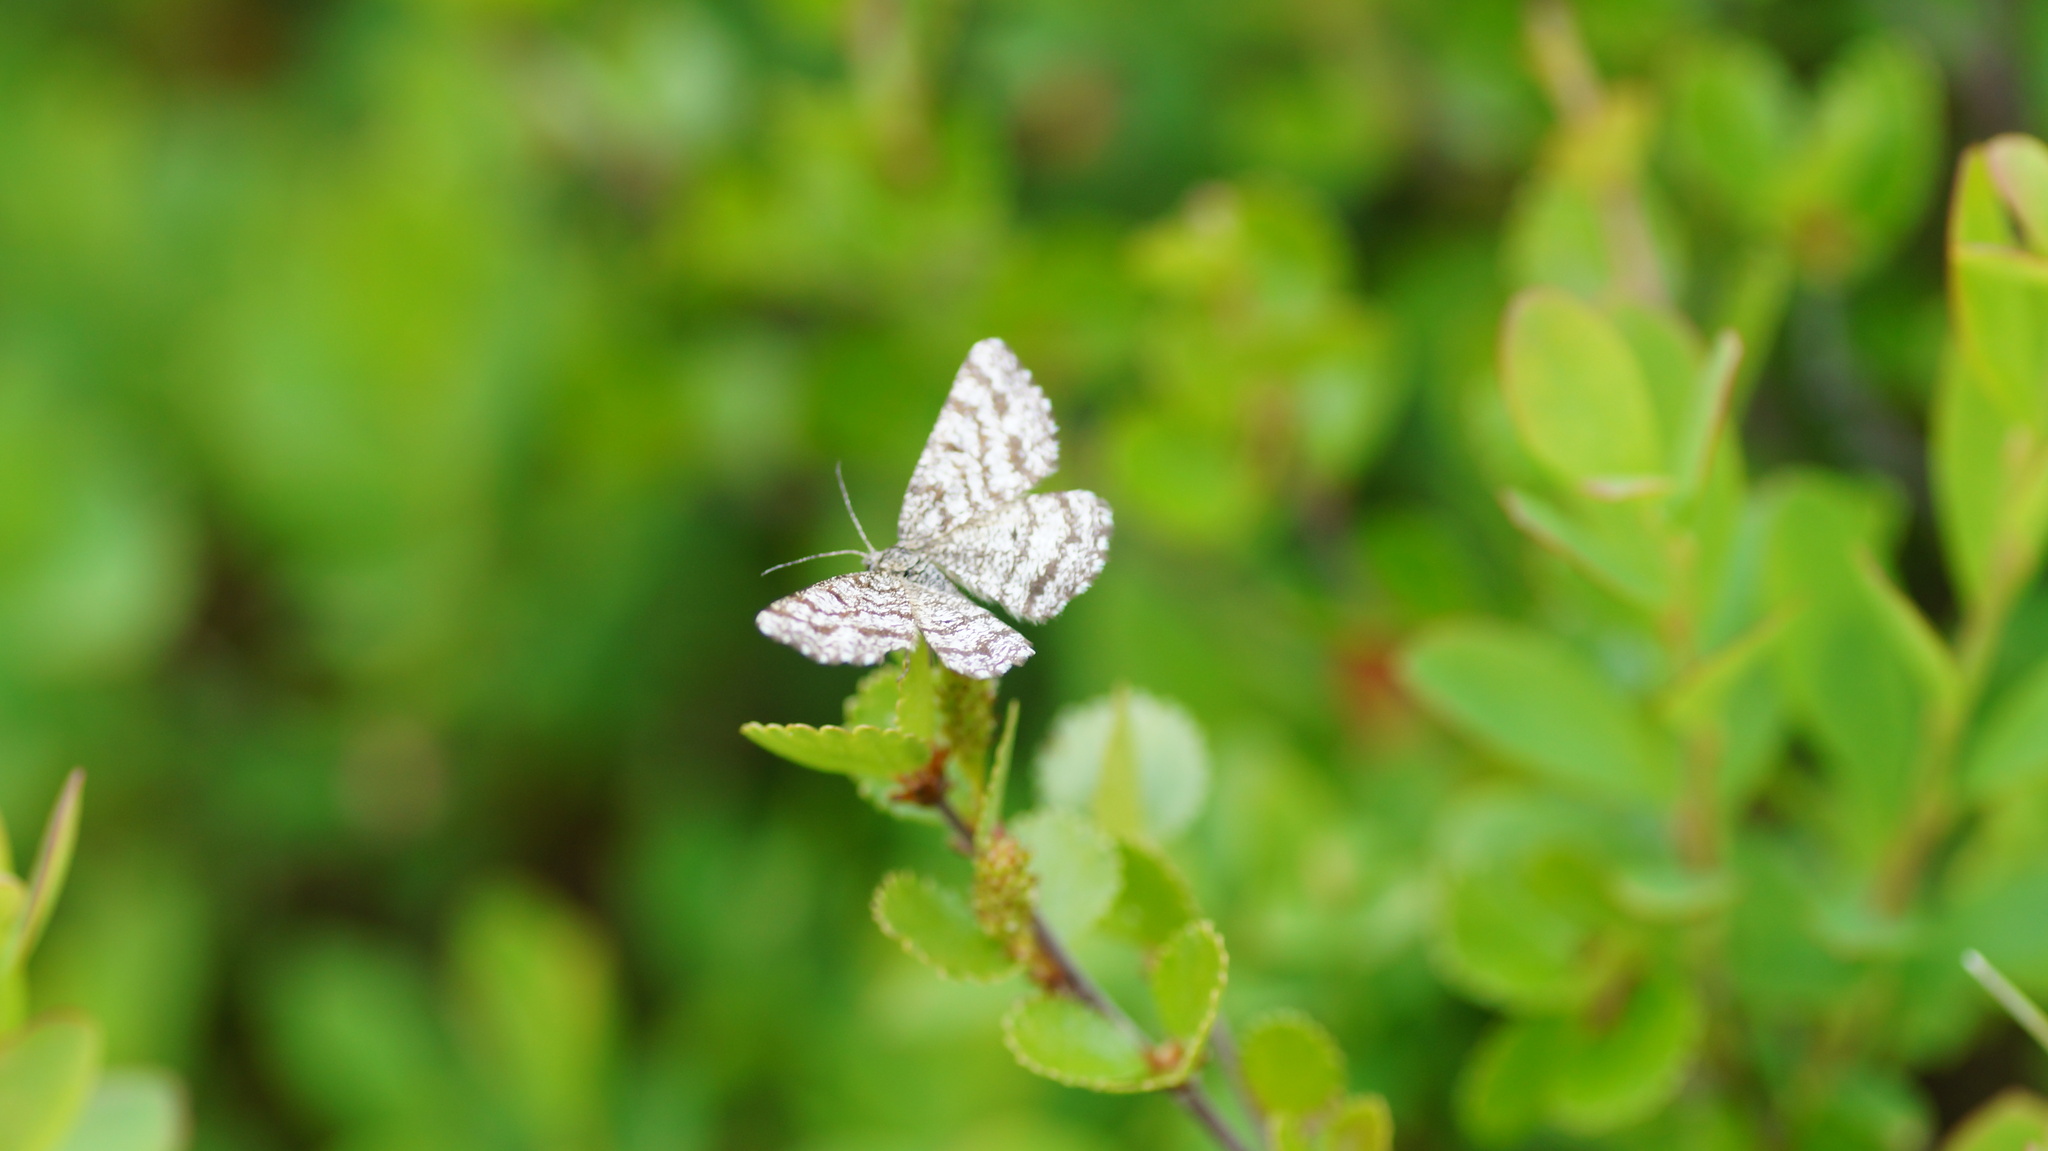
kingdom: Animalia
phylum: Arthropoda
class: Insecta
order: Lepidoptera
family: Geometridae
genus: Ematurga
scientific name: Ematurga atomaria
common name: Common heath
